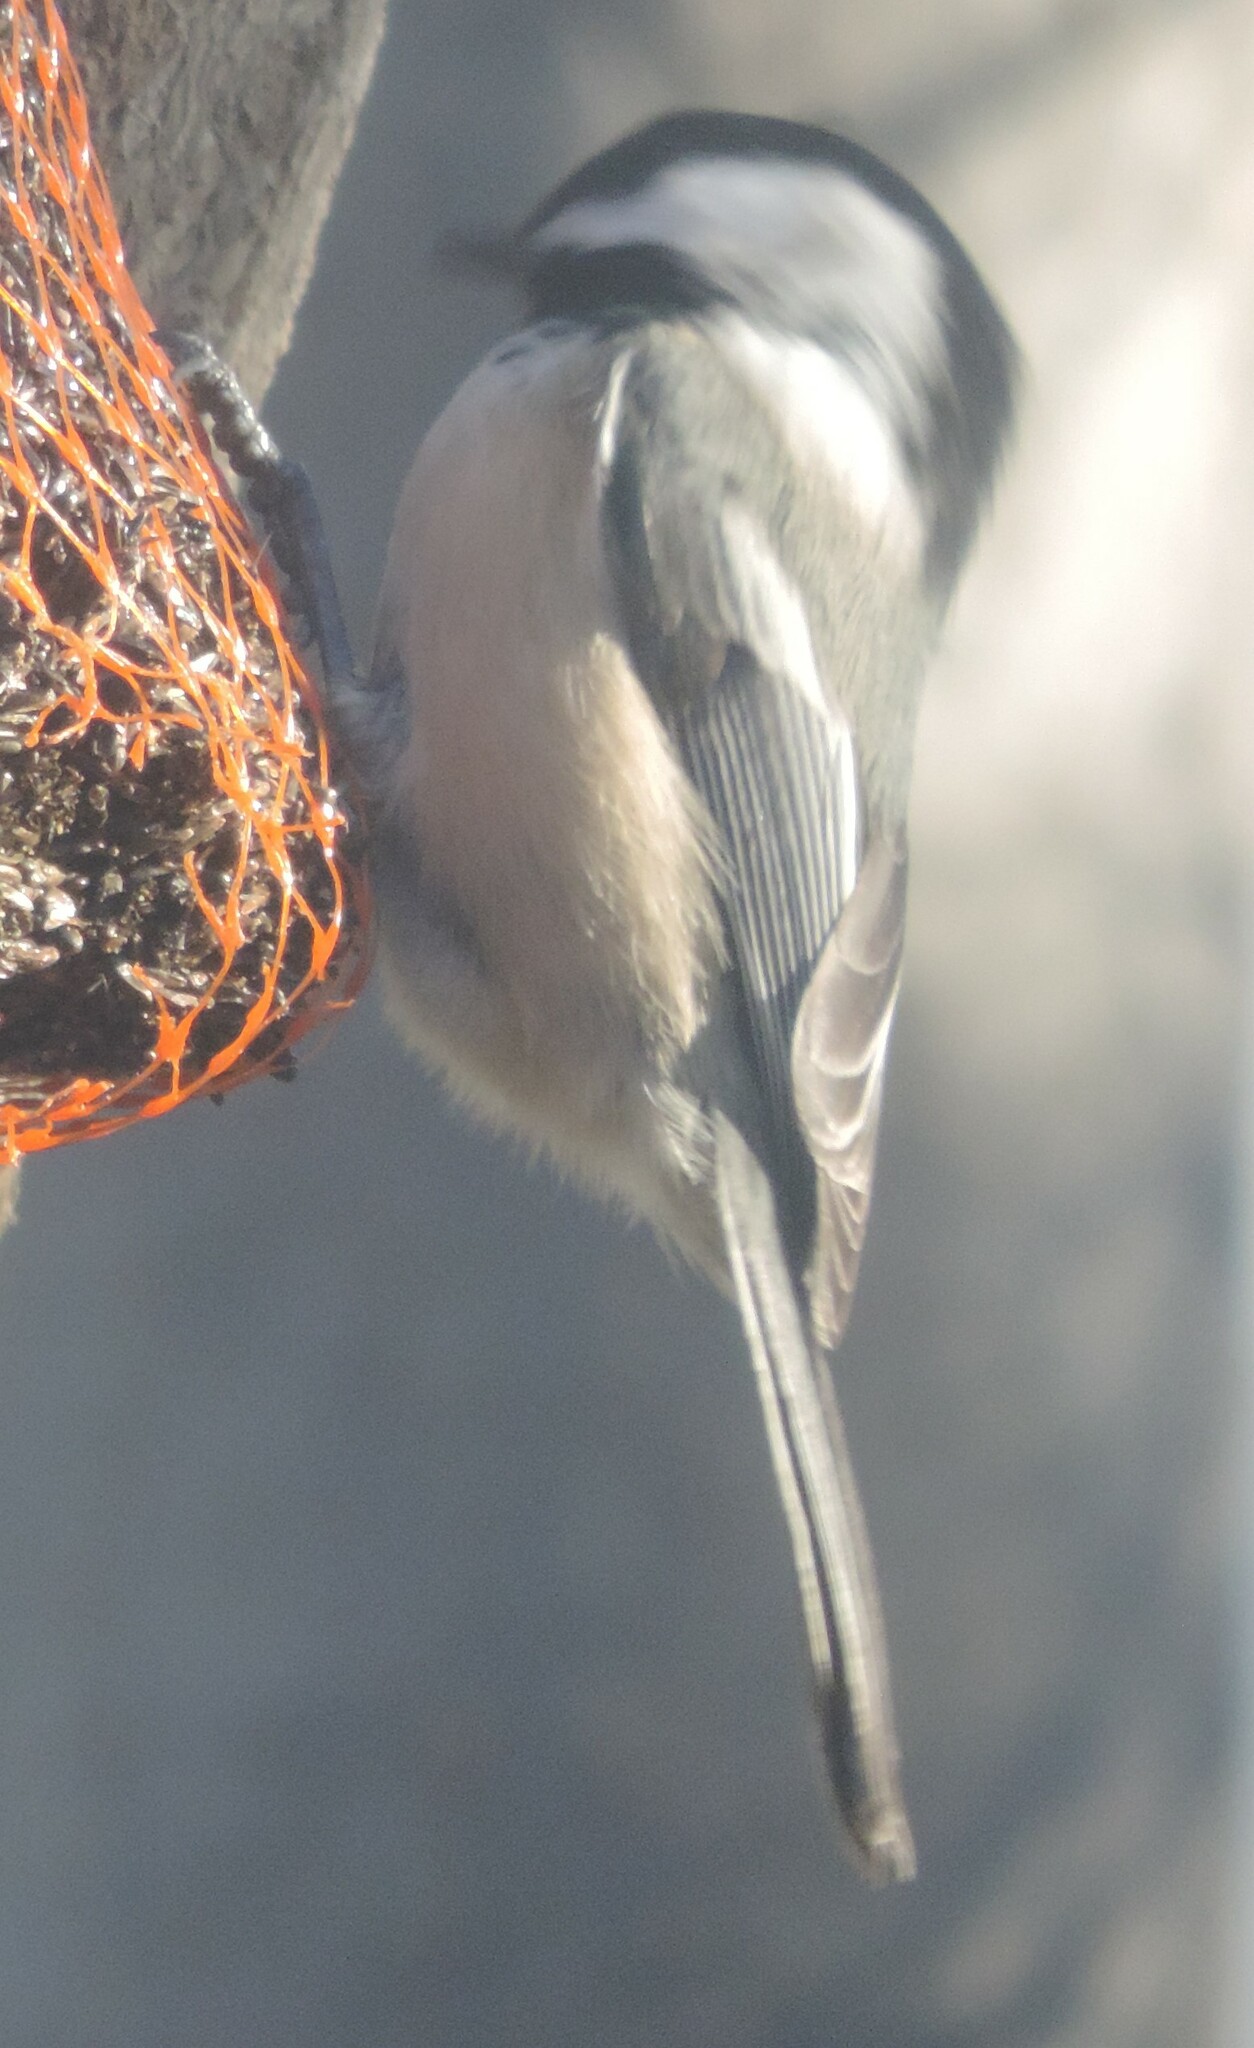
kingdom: Animalia
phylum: Chordata
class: Aves
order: Passeriformes
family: Paridae
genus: Poecile
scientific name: Poecile atricapillus
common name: Black-capped chickadee
